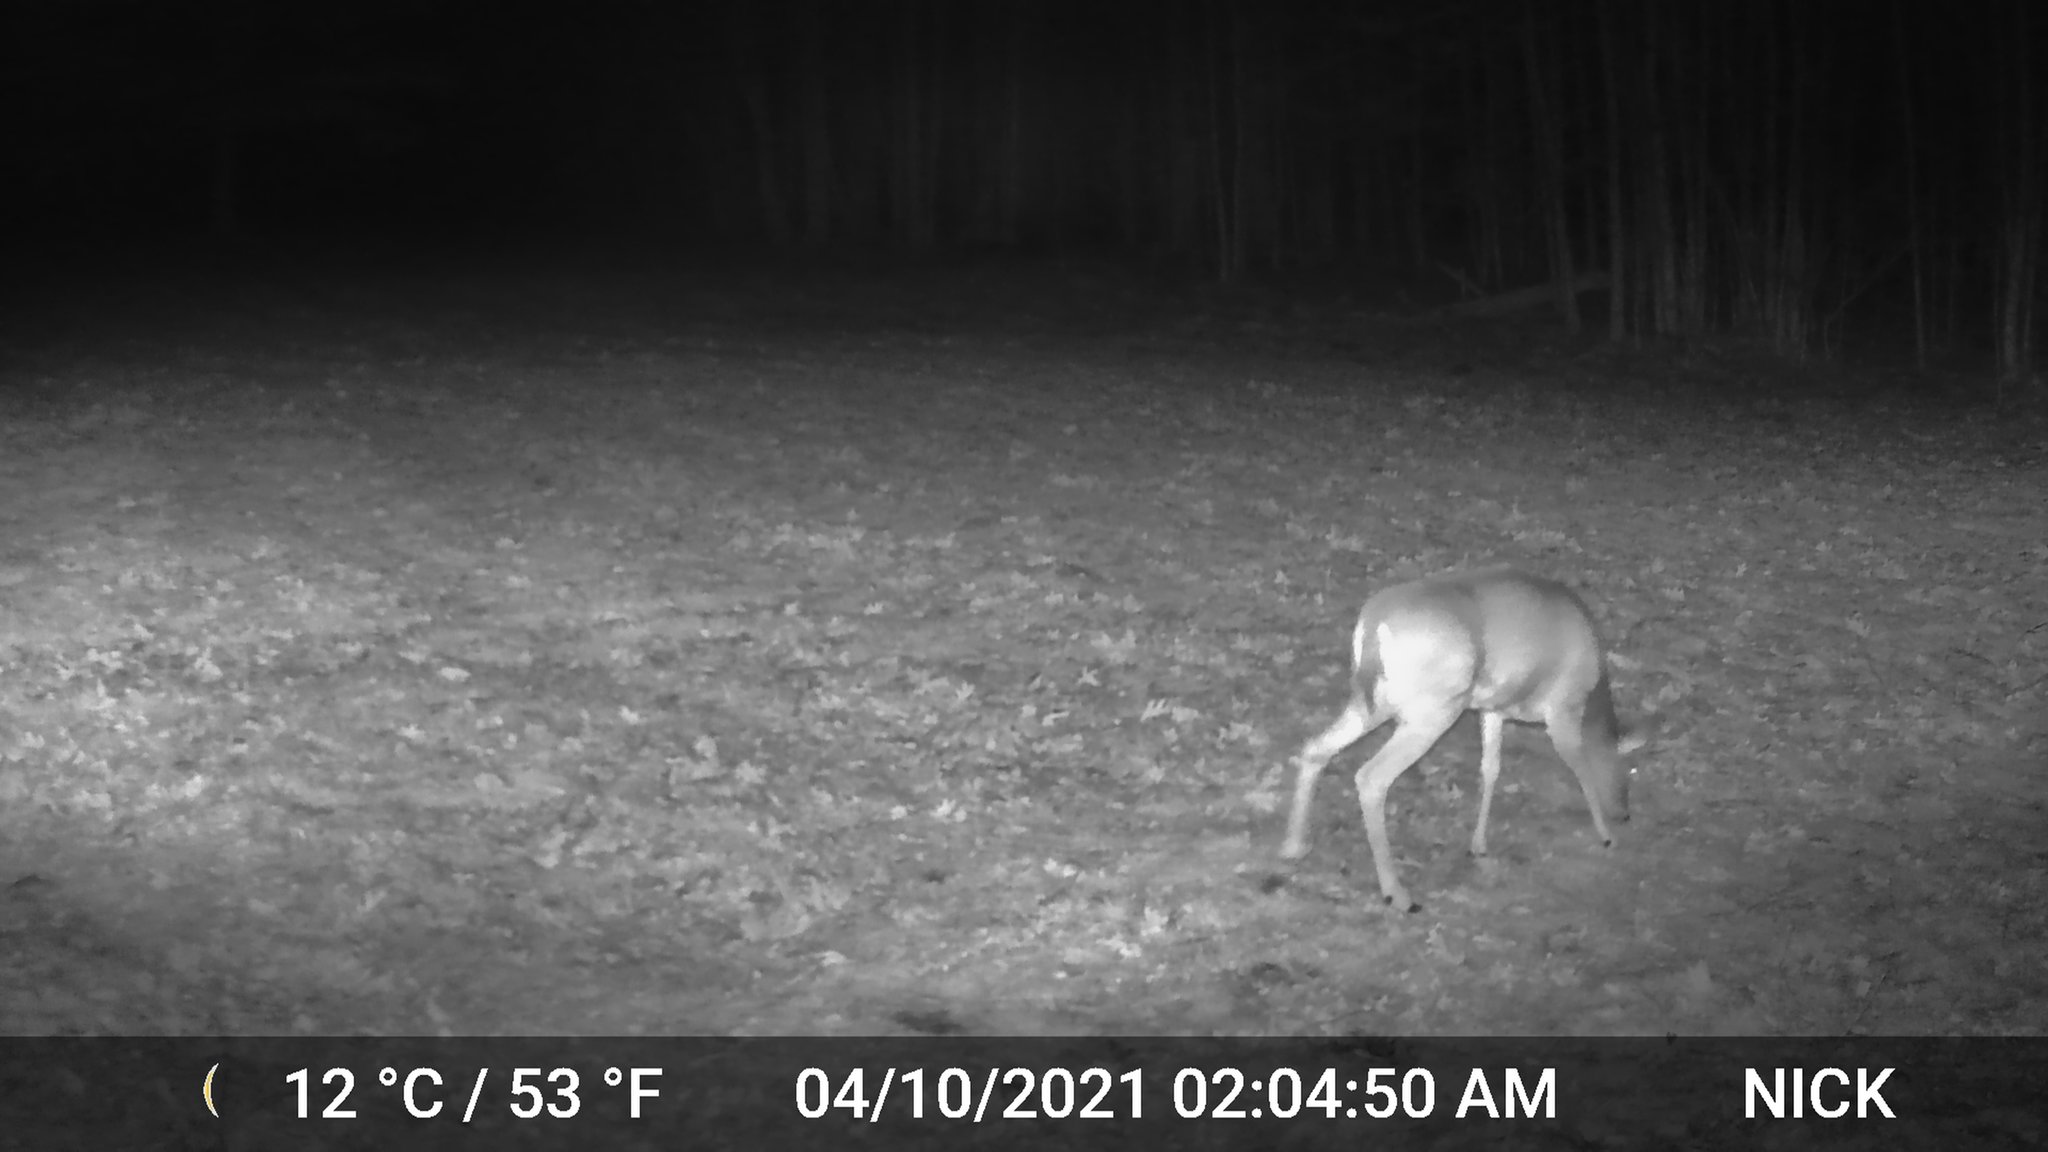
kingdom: Animalia
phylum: Chordata
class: Mammalia
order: Artiodactyla
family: Cervidae
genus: Odocoileus
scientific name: Odocoileus virginianus
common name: White-tailed deer
